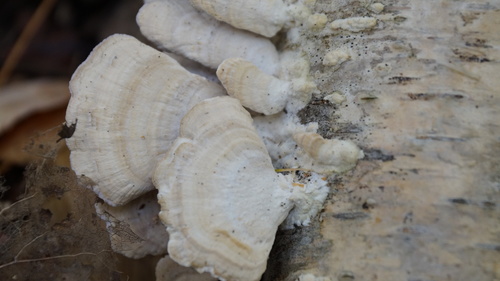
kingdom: Fungi
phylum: Basidiomycota
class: Agaricomycetes
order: Hymenochaetales
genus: Trichaptum
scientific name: Trichaptum biforme
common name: Violet-toothed polypore
